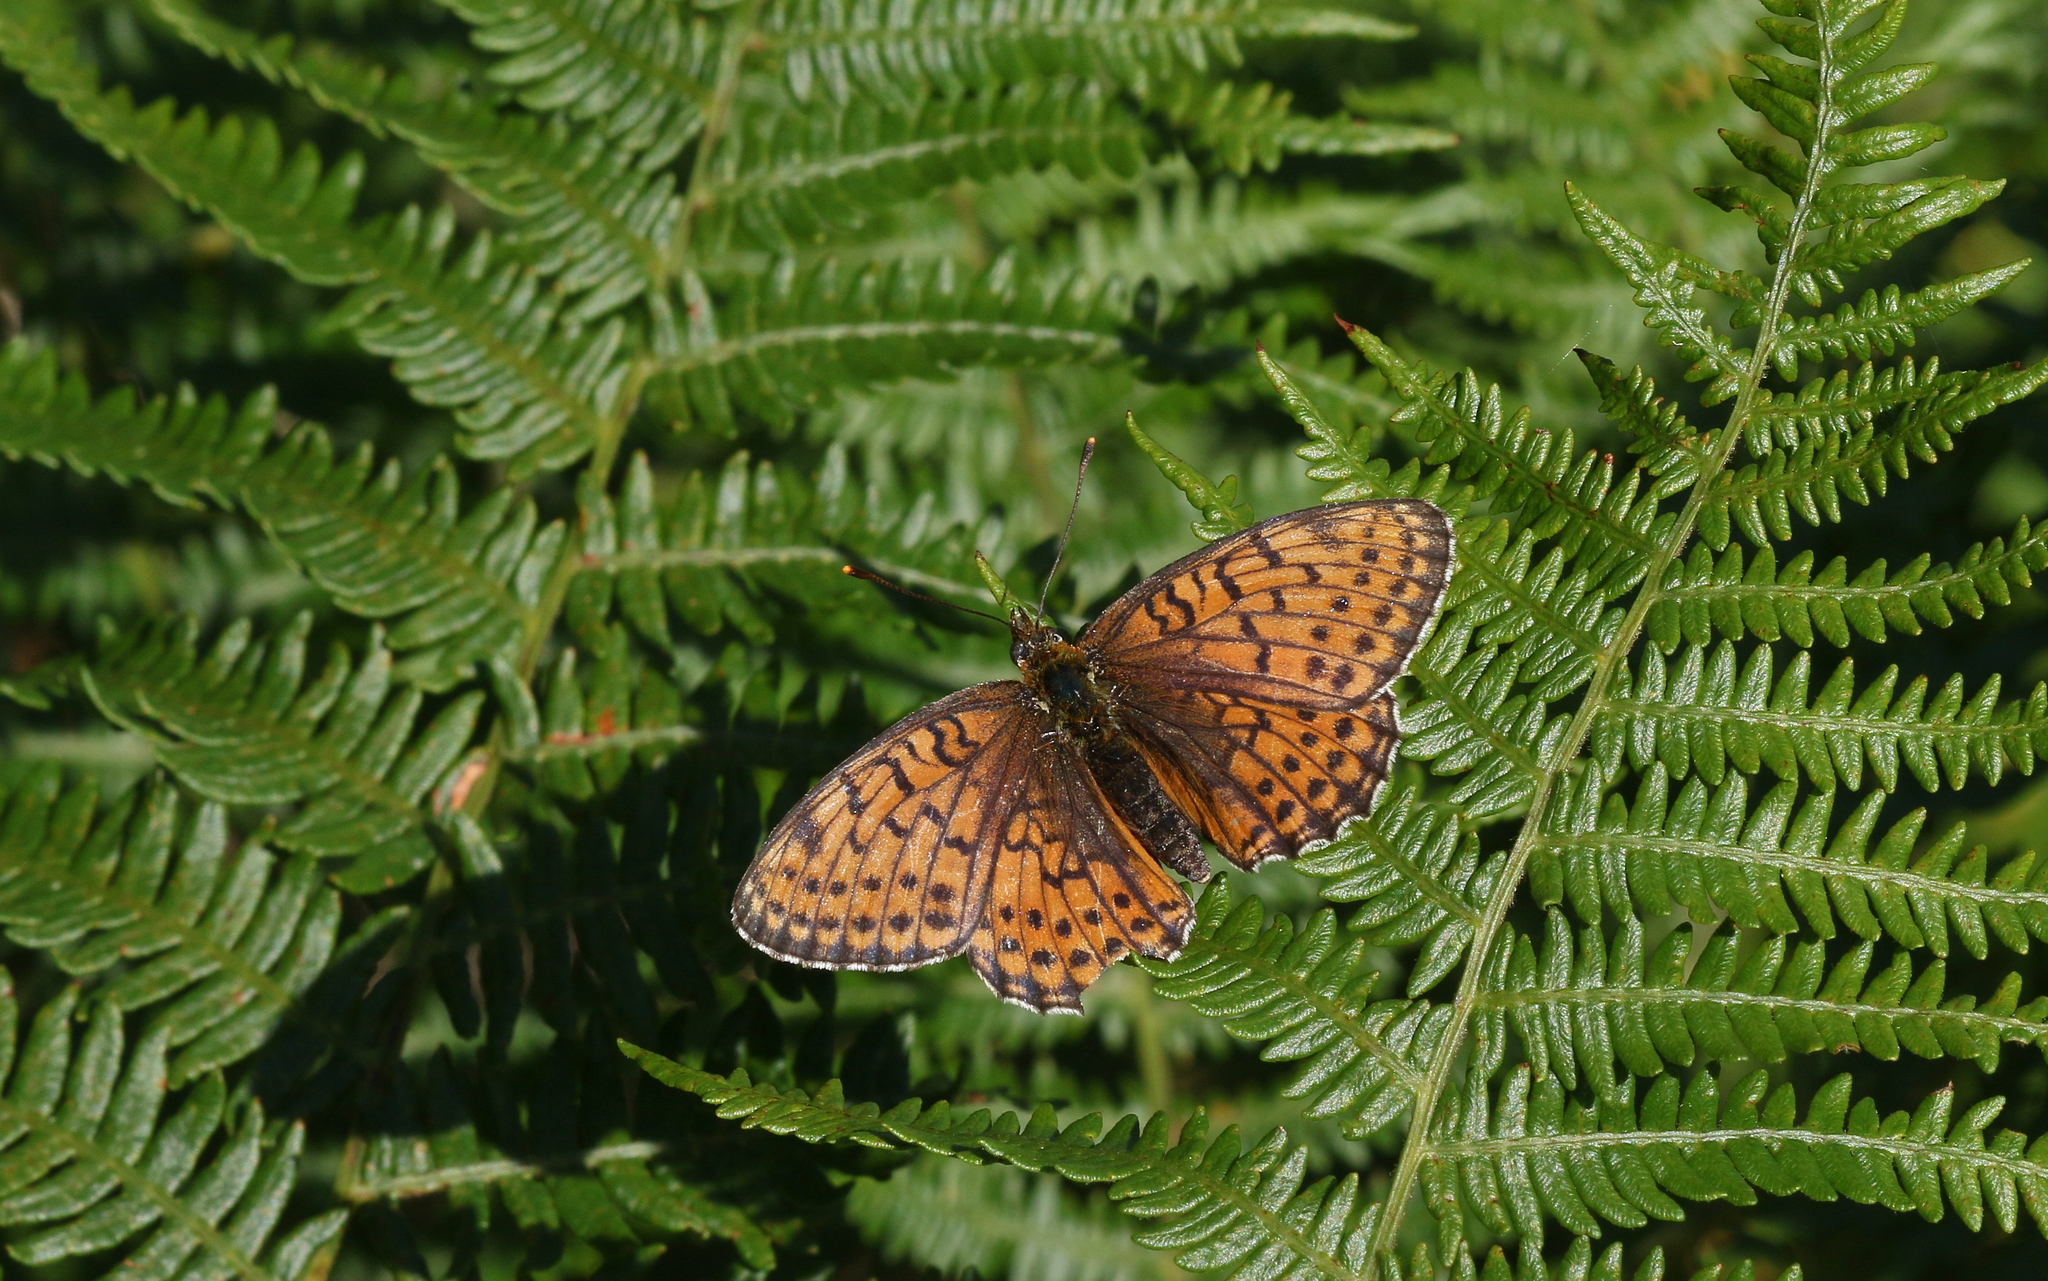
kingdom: Animalia
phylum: Arthropoda
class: Insecta
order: Lepidoptera
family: Nymphalidae
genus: Brenthis
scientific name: Brenthis hecate
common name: Twin-spot fritillary
